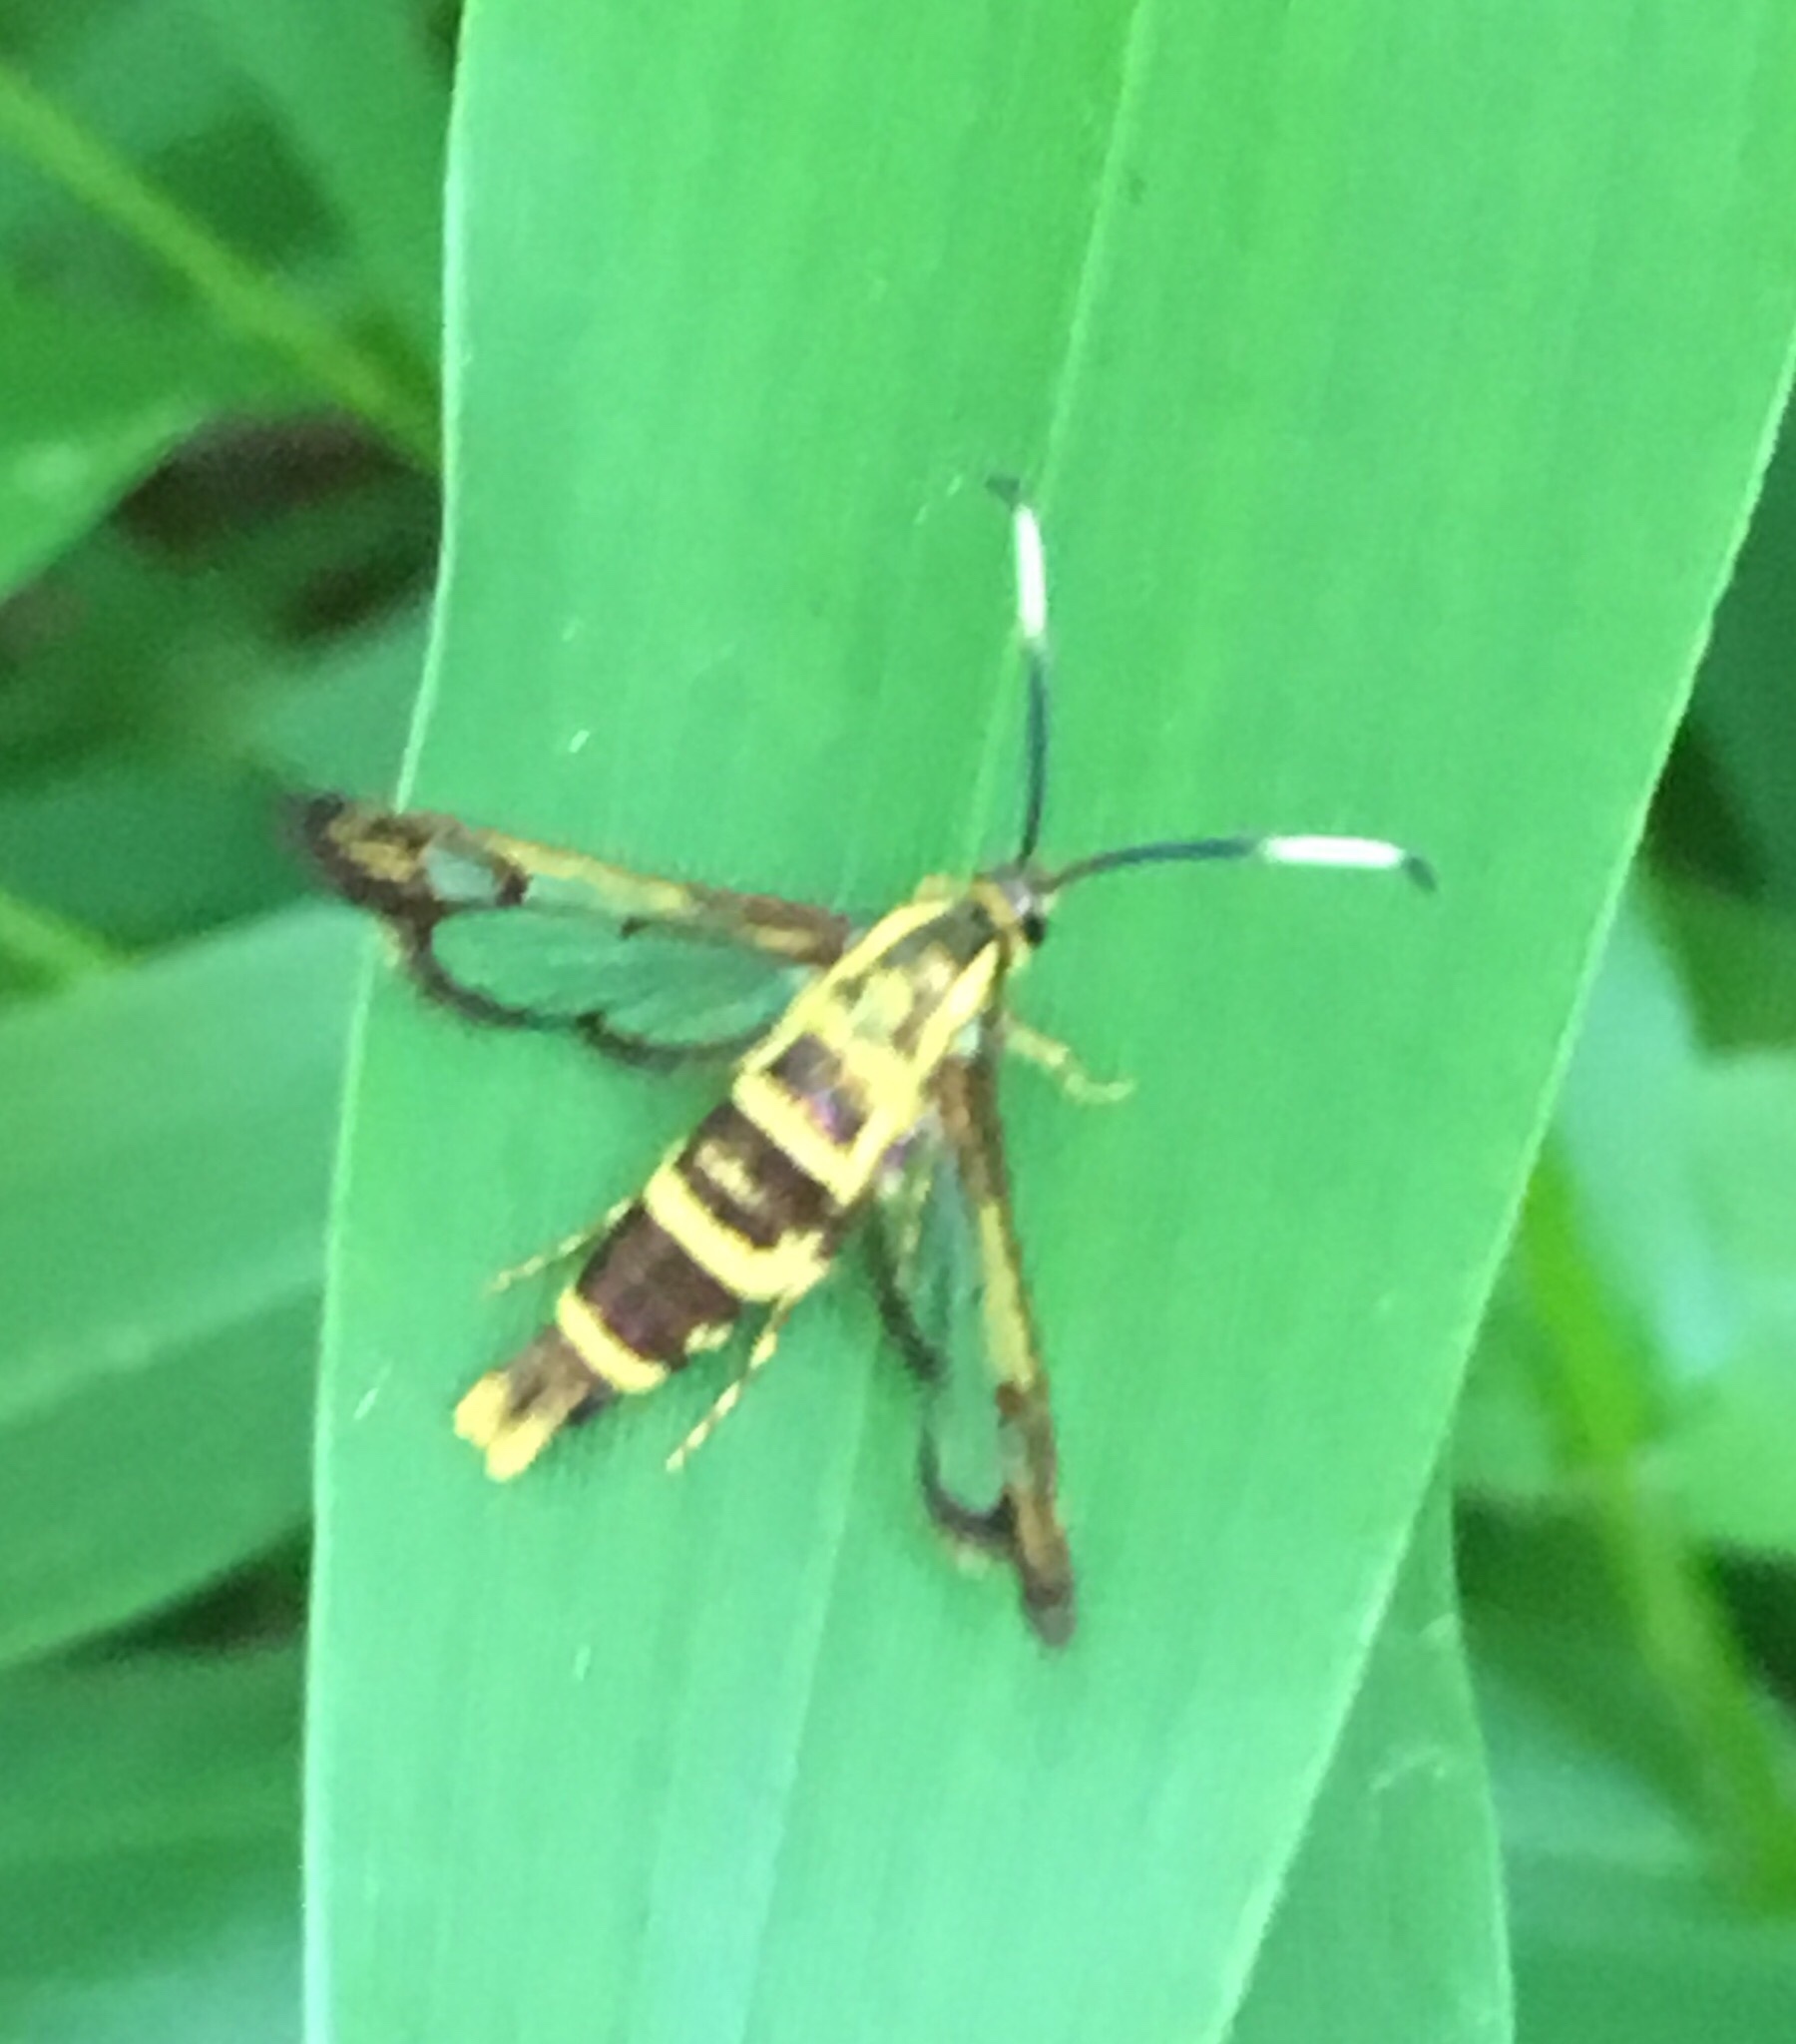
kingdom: Animalia
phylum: Arthropoda
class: Insecta
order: Lepidoptera
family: Sesiidae
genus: Carmenta
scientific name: Carmenta bassiformis
